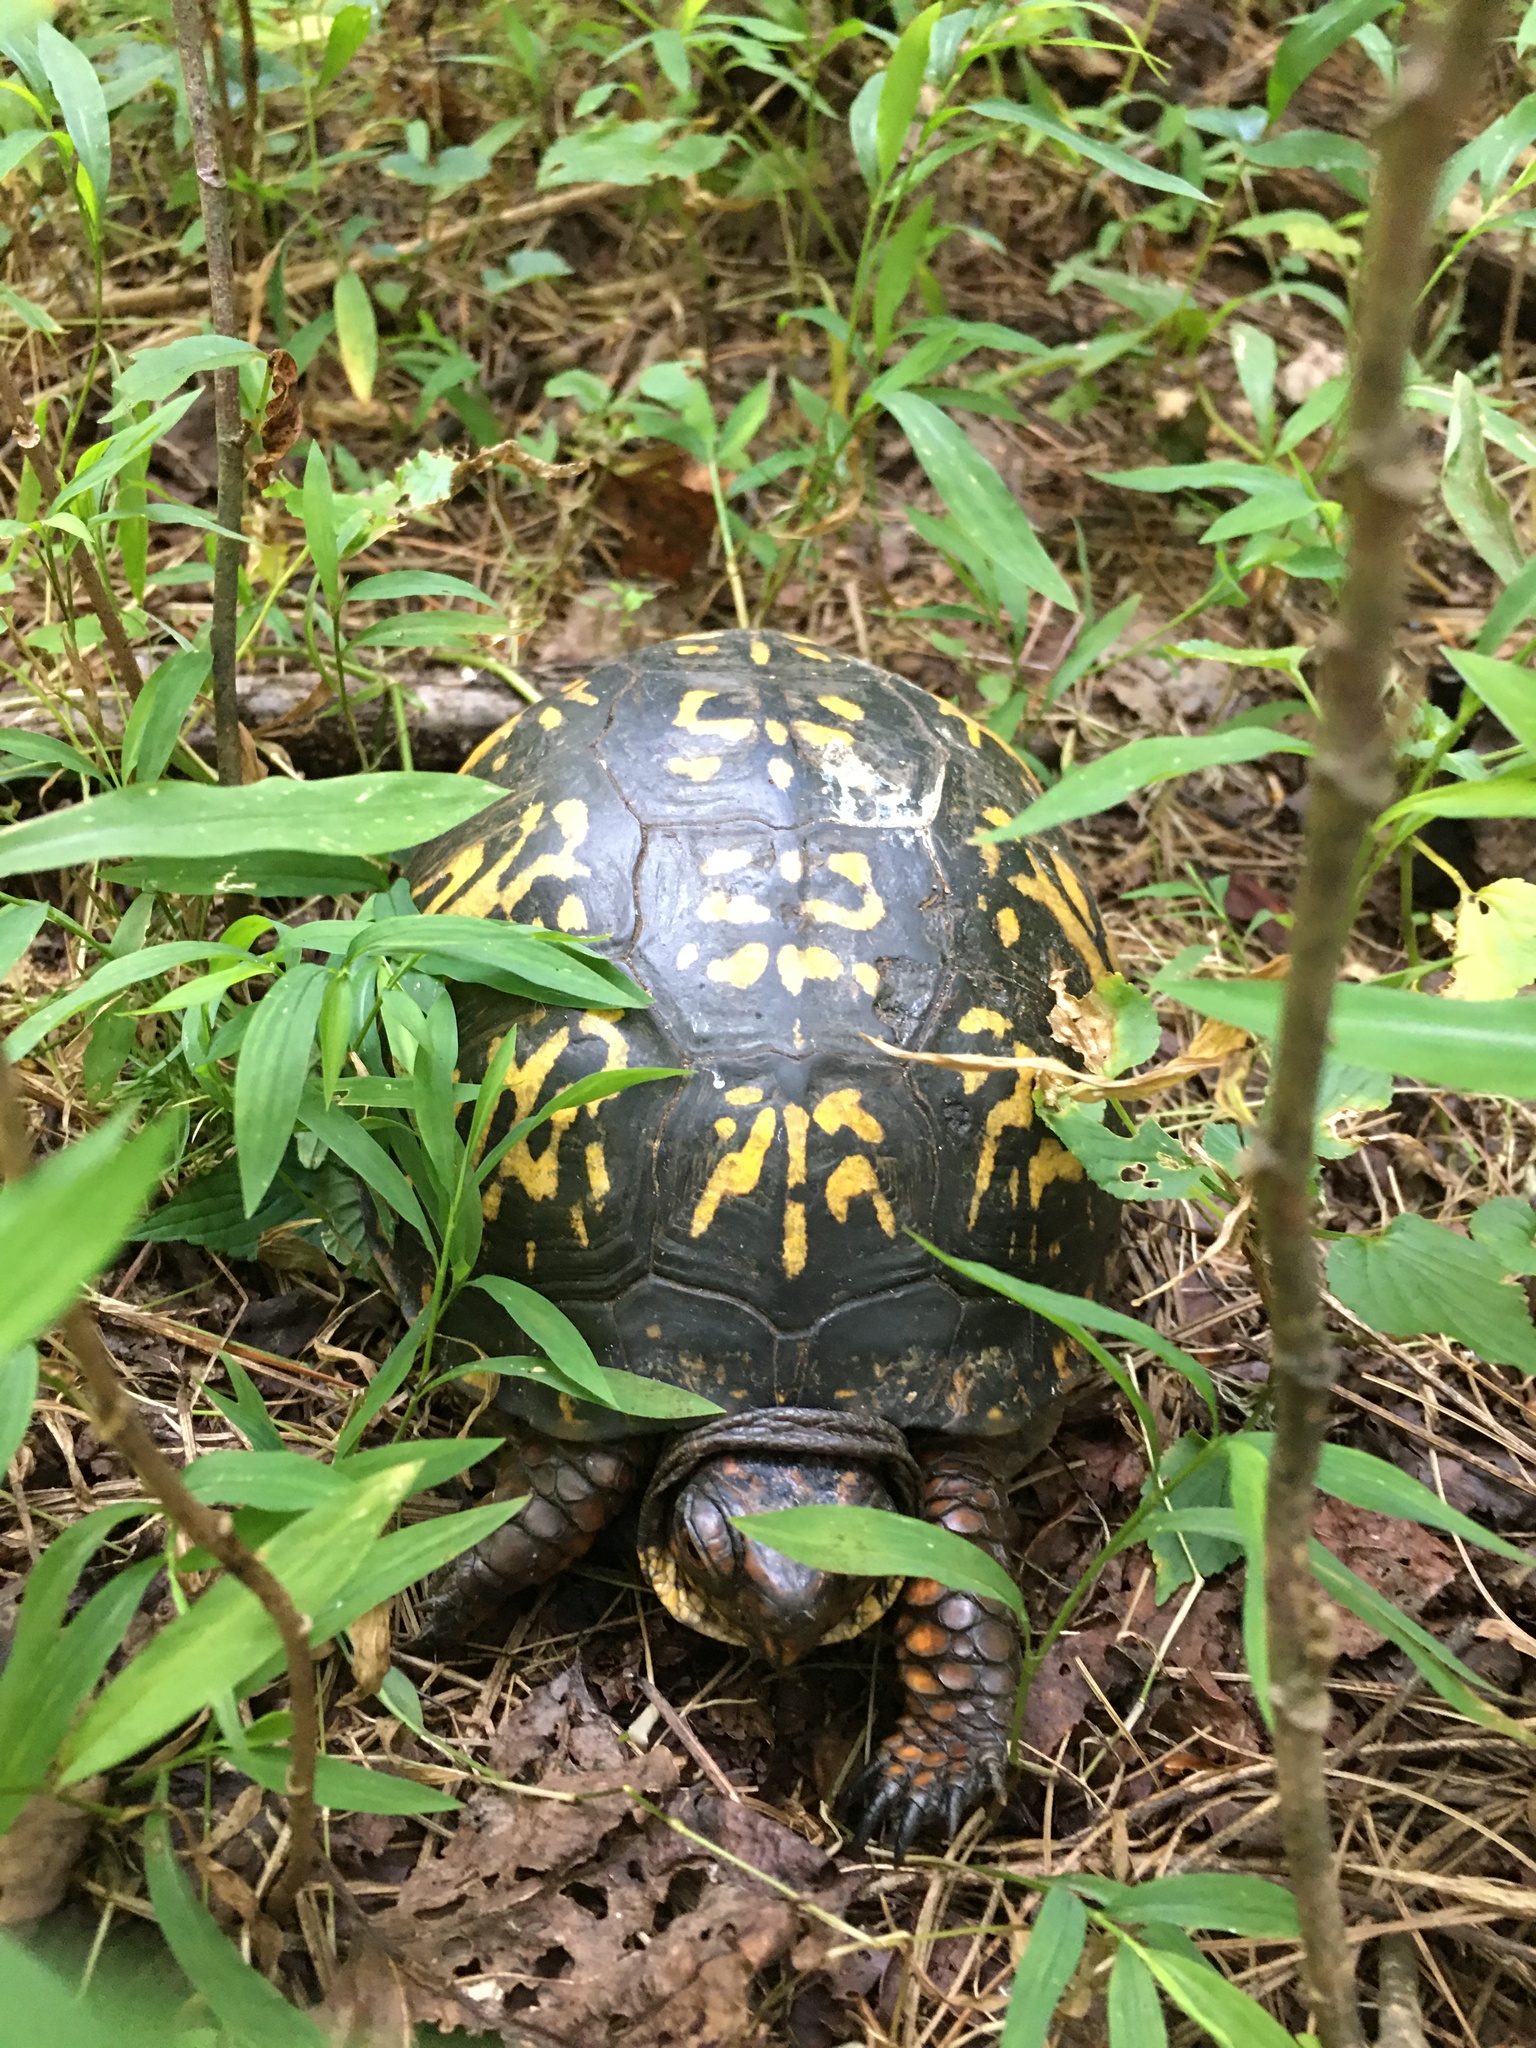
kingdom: Animalia
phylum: Chordata
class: Testudines
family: Emydidae
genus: Terrapene
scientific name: Terrapene carolina
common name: Common box turtle
